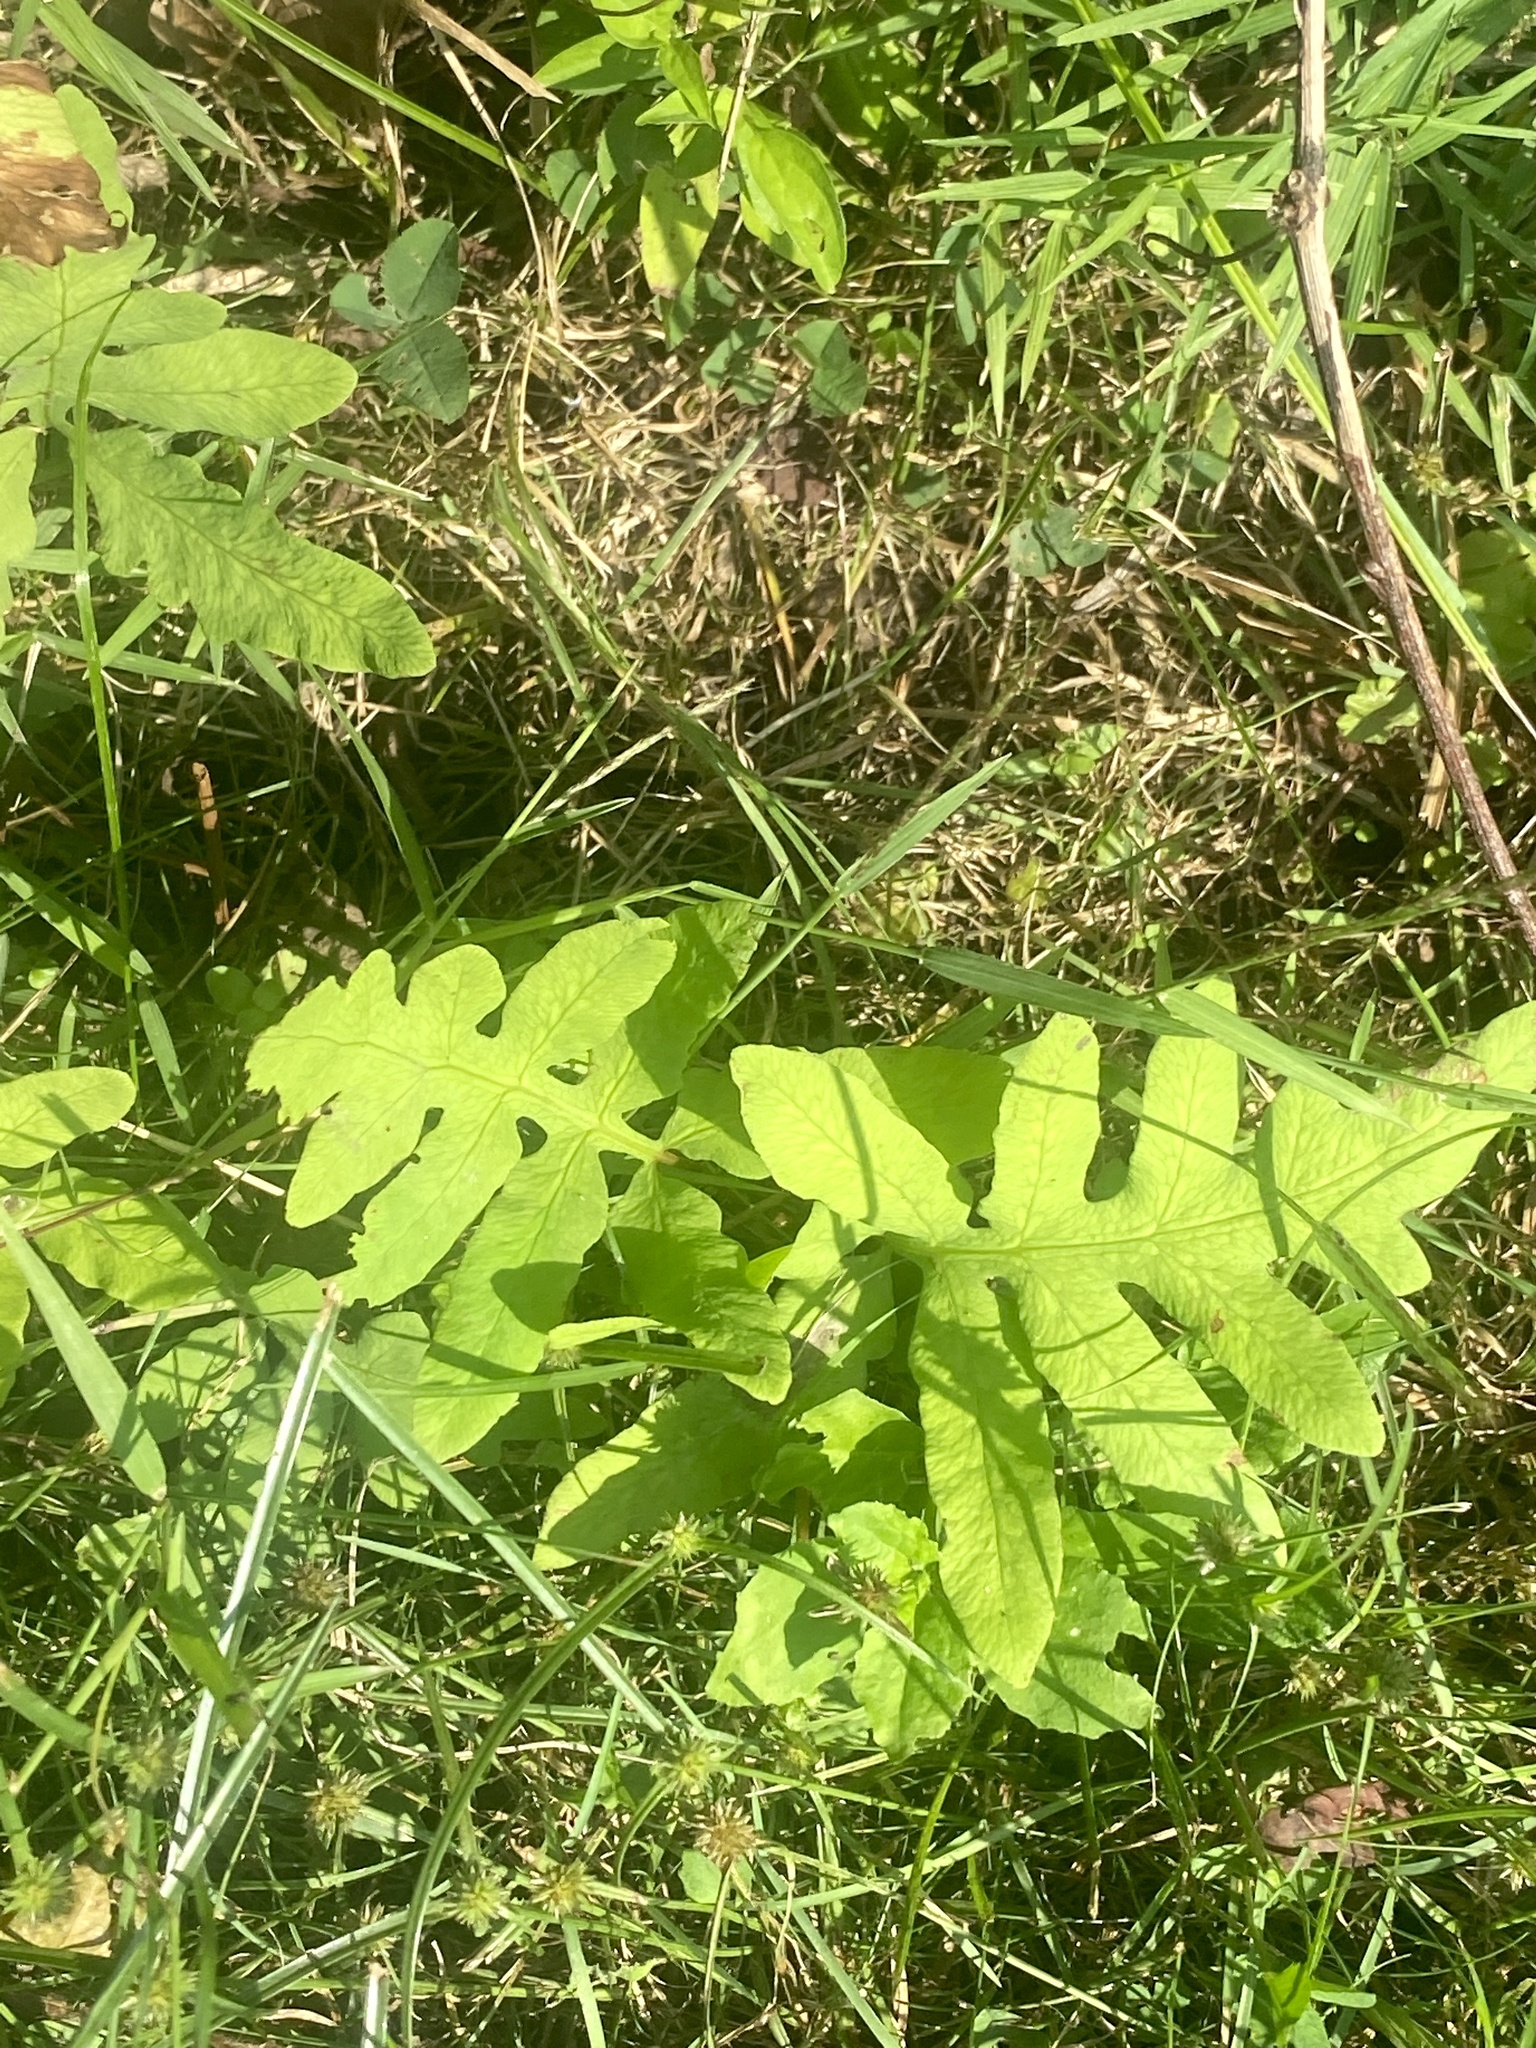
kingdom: Plantae
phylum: Tracheophyta
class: Polypodiopsida
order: Polypodiales
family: Onocleaceae
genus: Onoclea
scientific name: Onoclea sensibilis
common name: Sensitive fern
